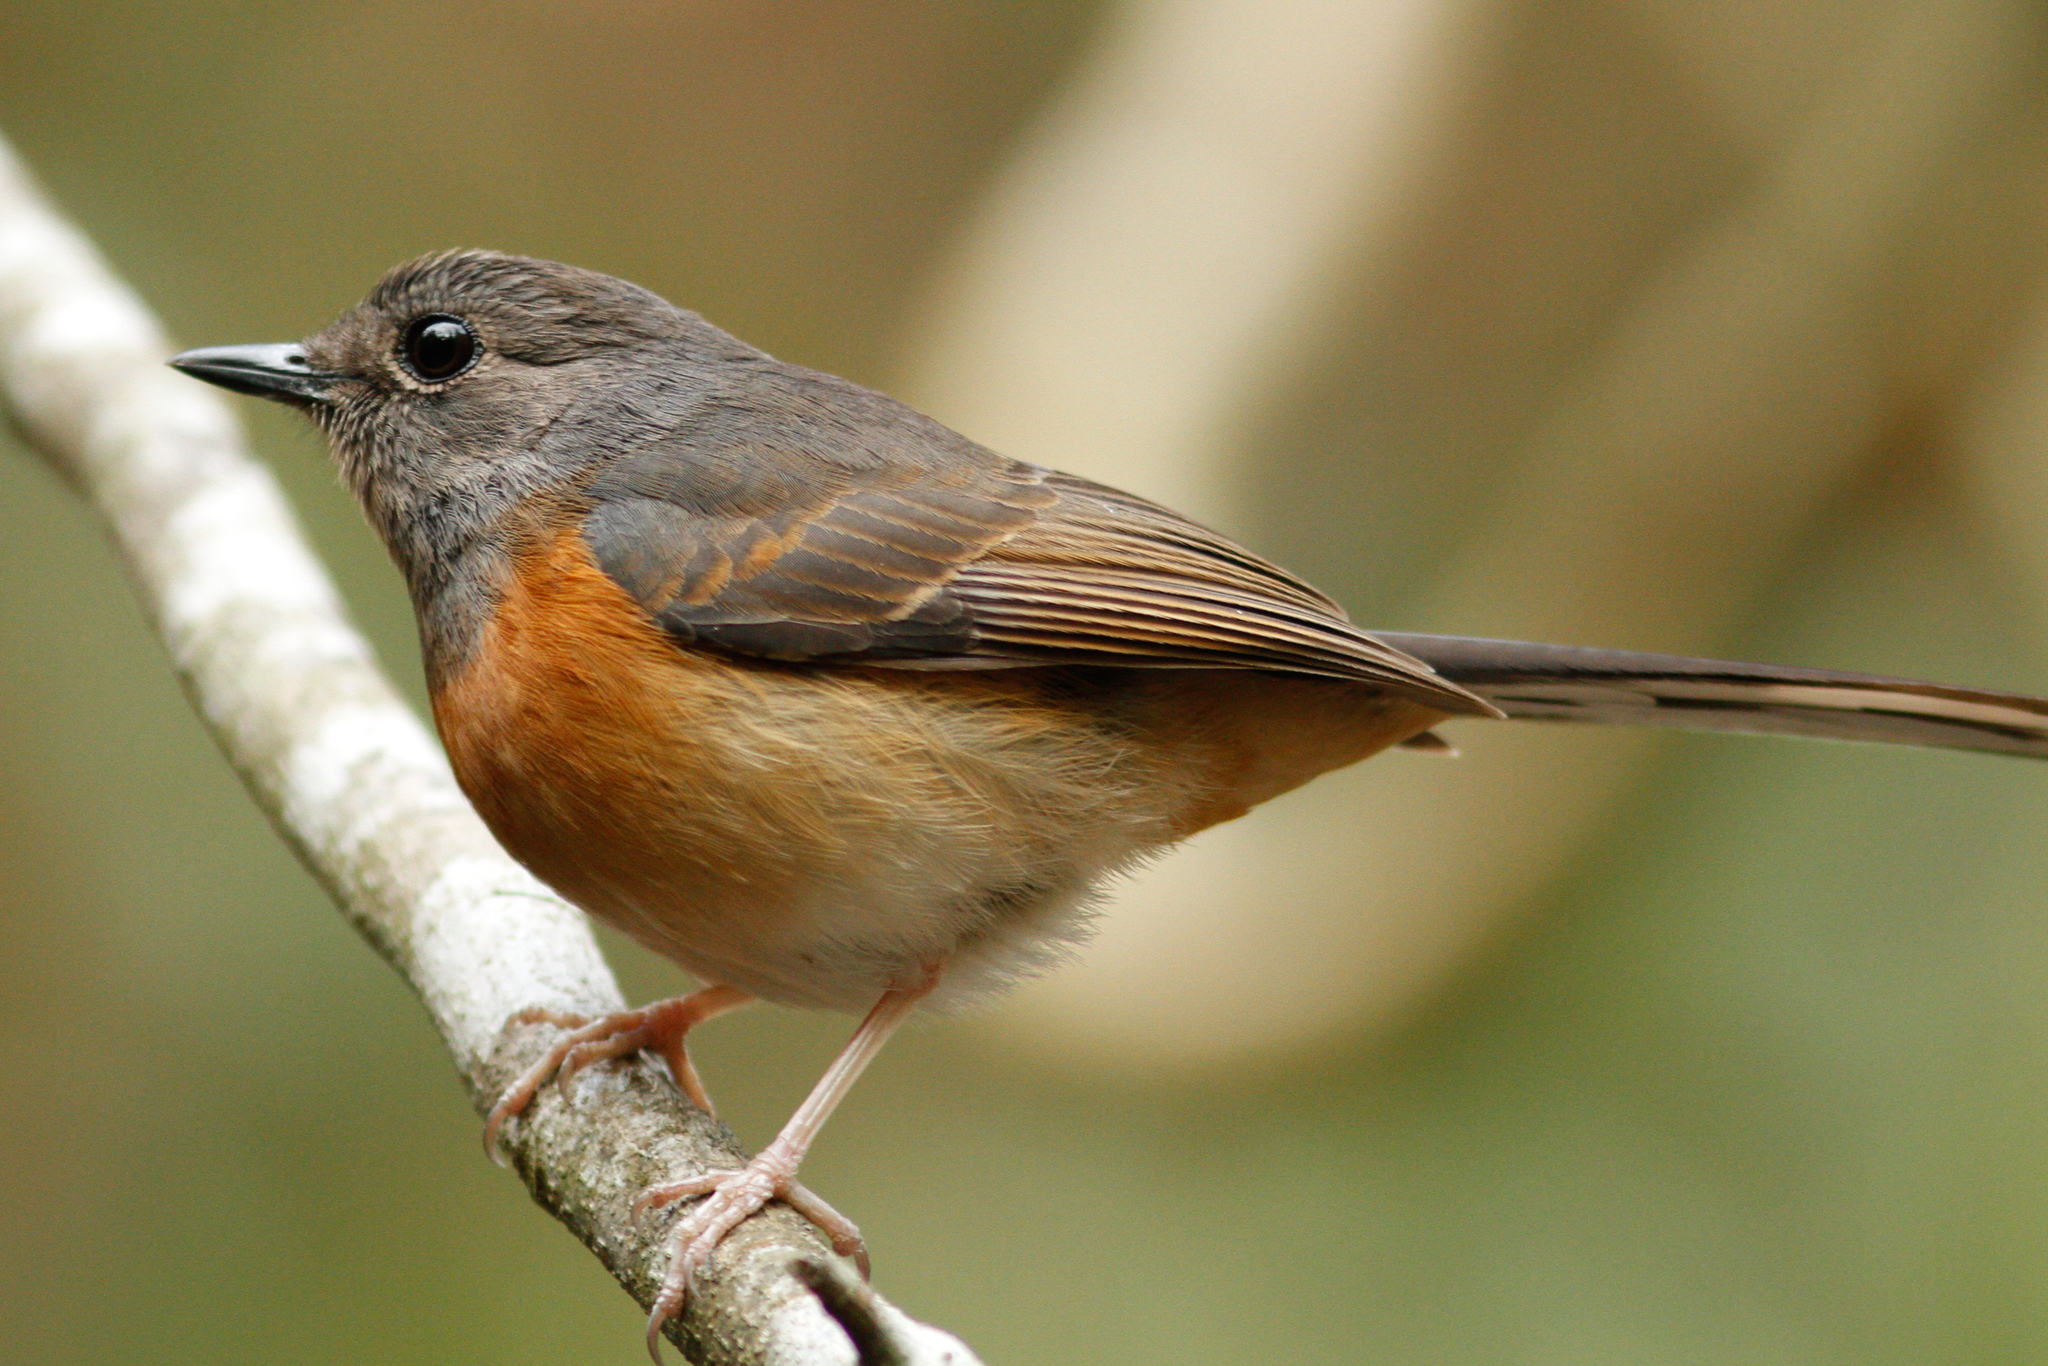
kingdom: Animalia
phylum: Chordata
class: Aves
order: Passeriformes
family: Muscicapidae
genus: Copsychus
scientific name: Copsychus malabaricus
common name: White-rumped shama
